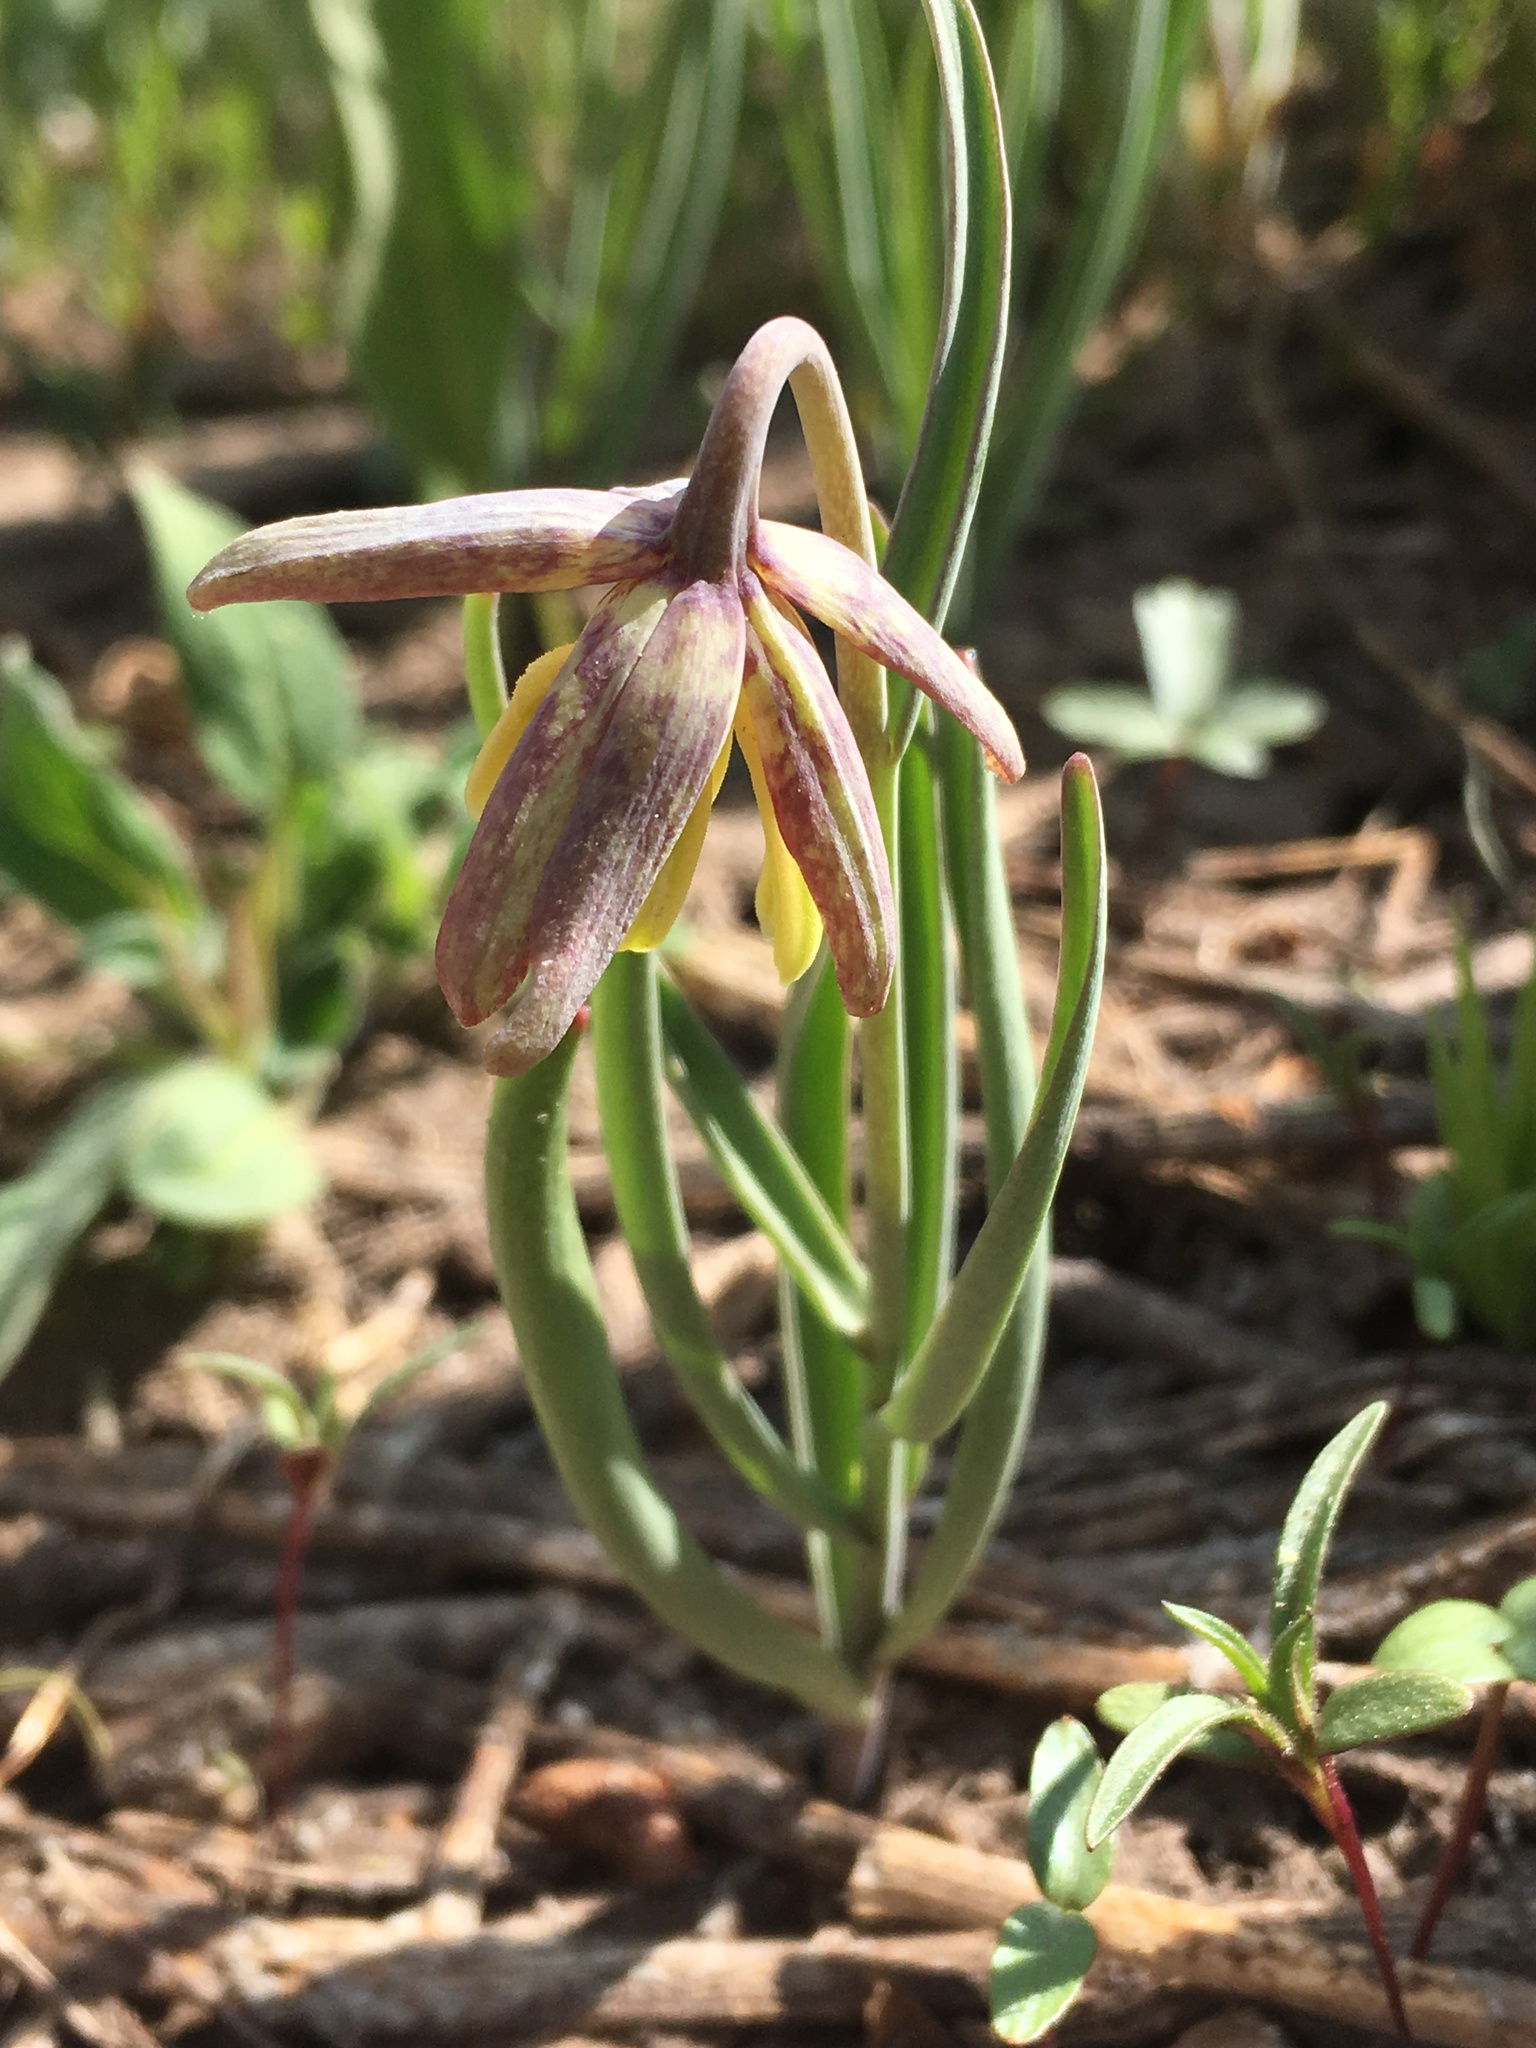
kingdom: Plantae
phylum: Tracheophyta
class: Liliopsida
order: Liliales
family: Liliaceae
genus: Fritillaria
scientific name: Fritillaria atropurpurea
